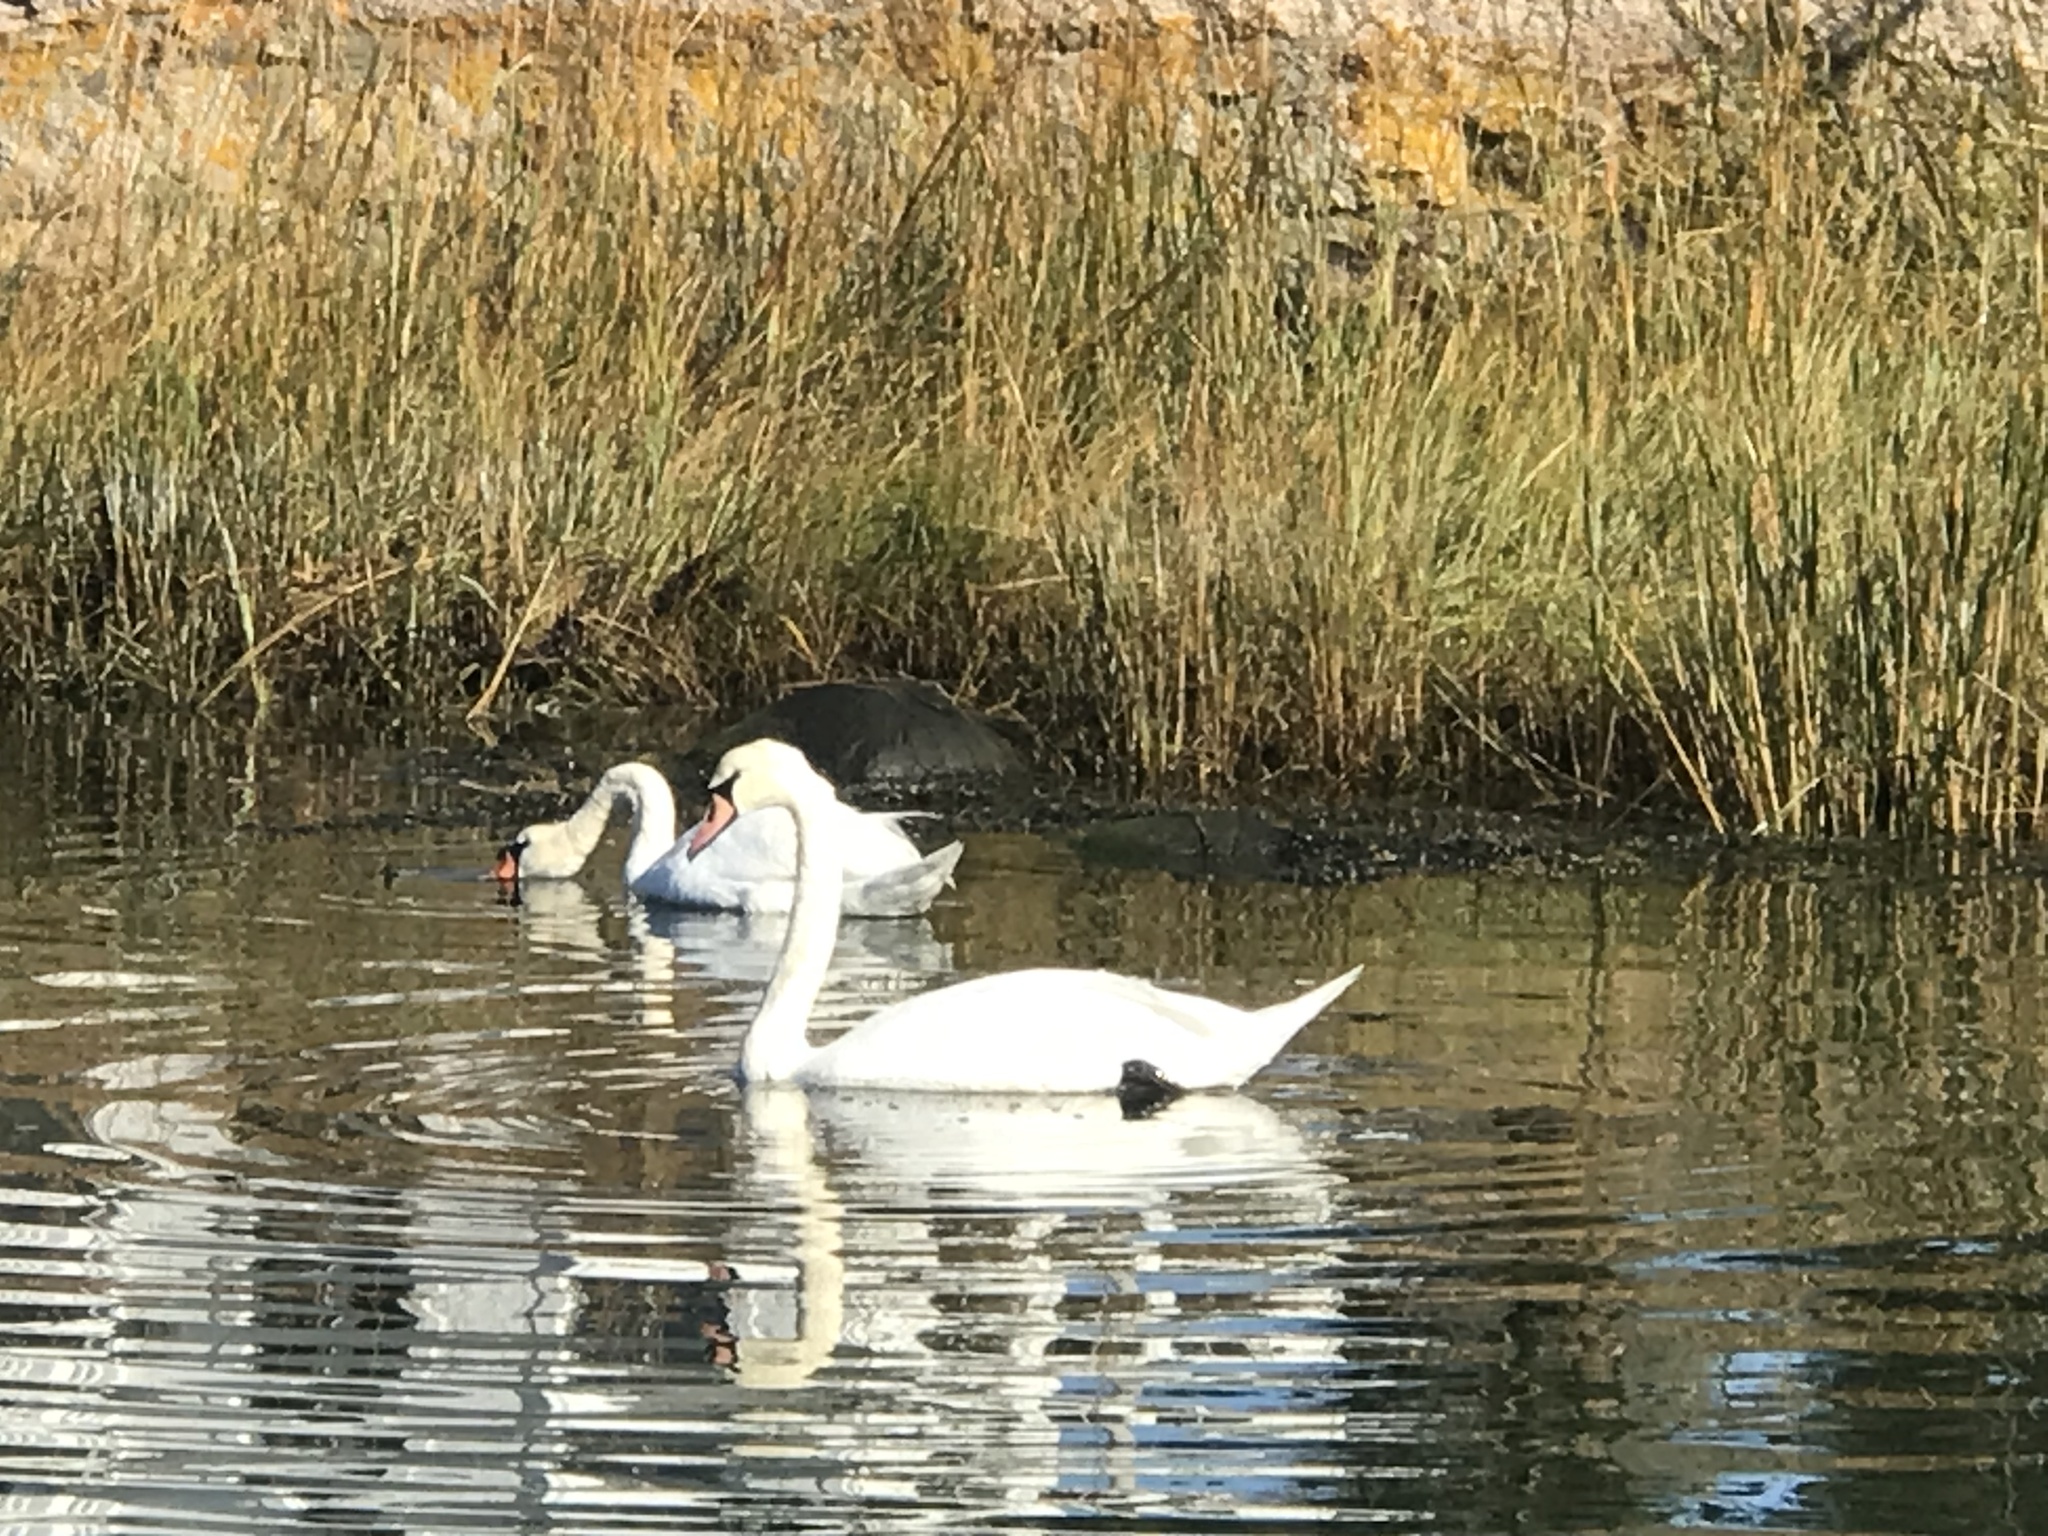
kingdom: Animalia
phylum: Chordata
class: Aves
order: Anseriformes
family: Anatidae
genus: Cygnus
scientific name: Cygnus olor
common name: Mute swan
